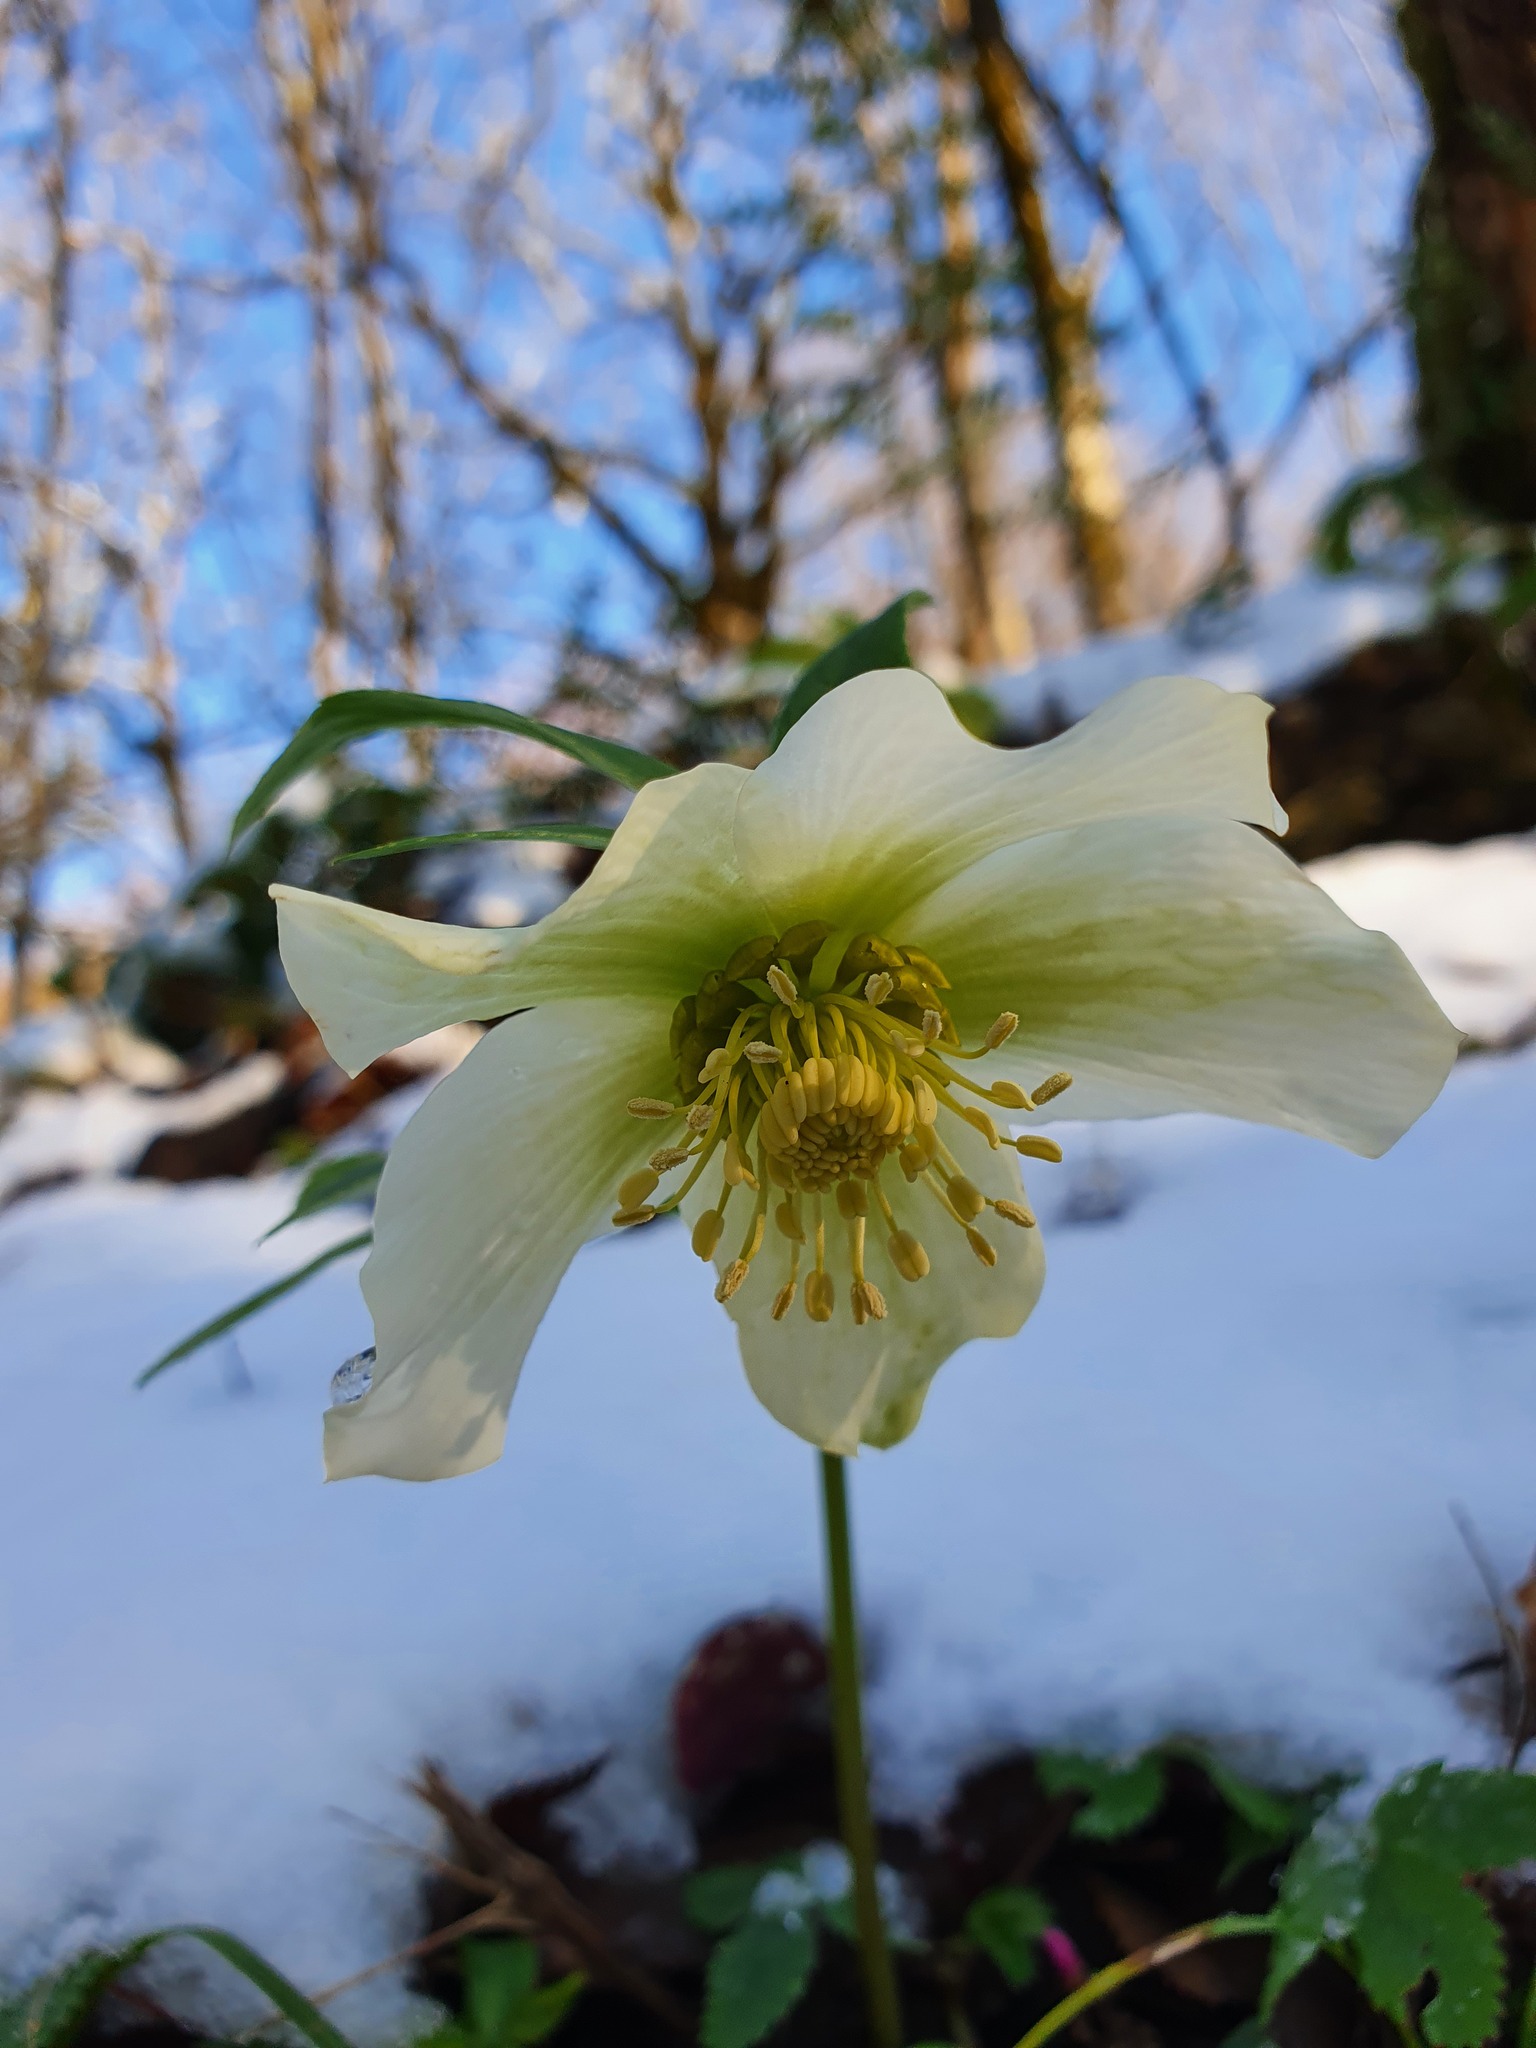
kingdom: Plantae
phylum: Tracheophyta
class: Magnoliopsida
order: Ranunculales
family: Ranunculaceae
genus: Helleborus
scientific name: Helleborus orientalis
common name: Lenten-rose
